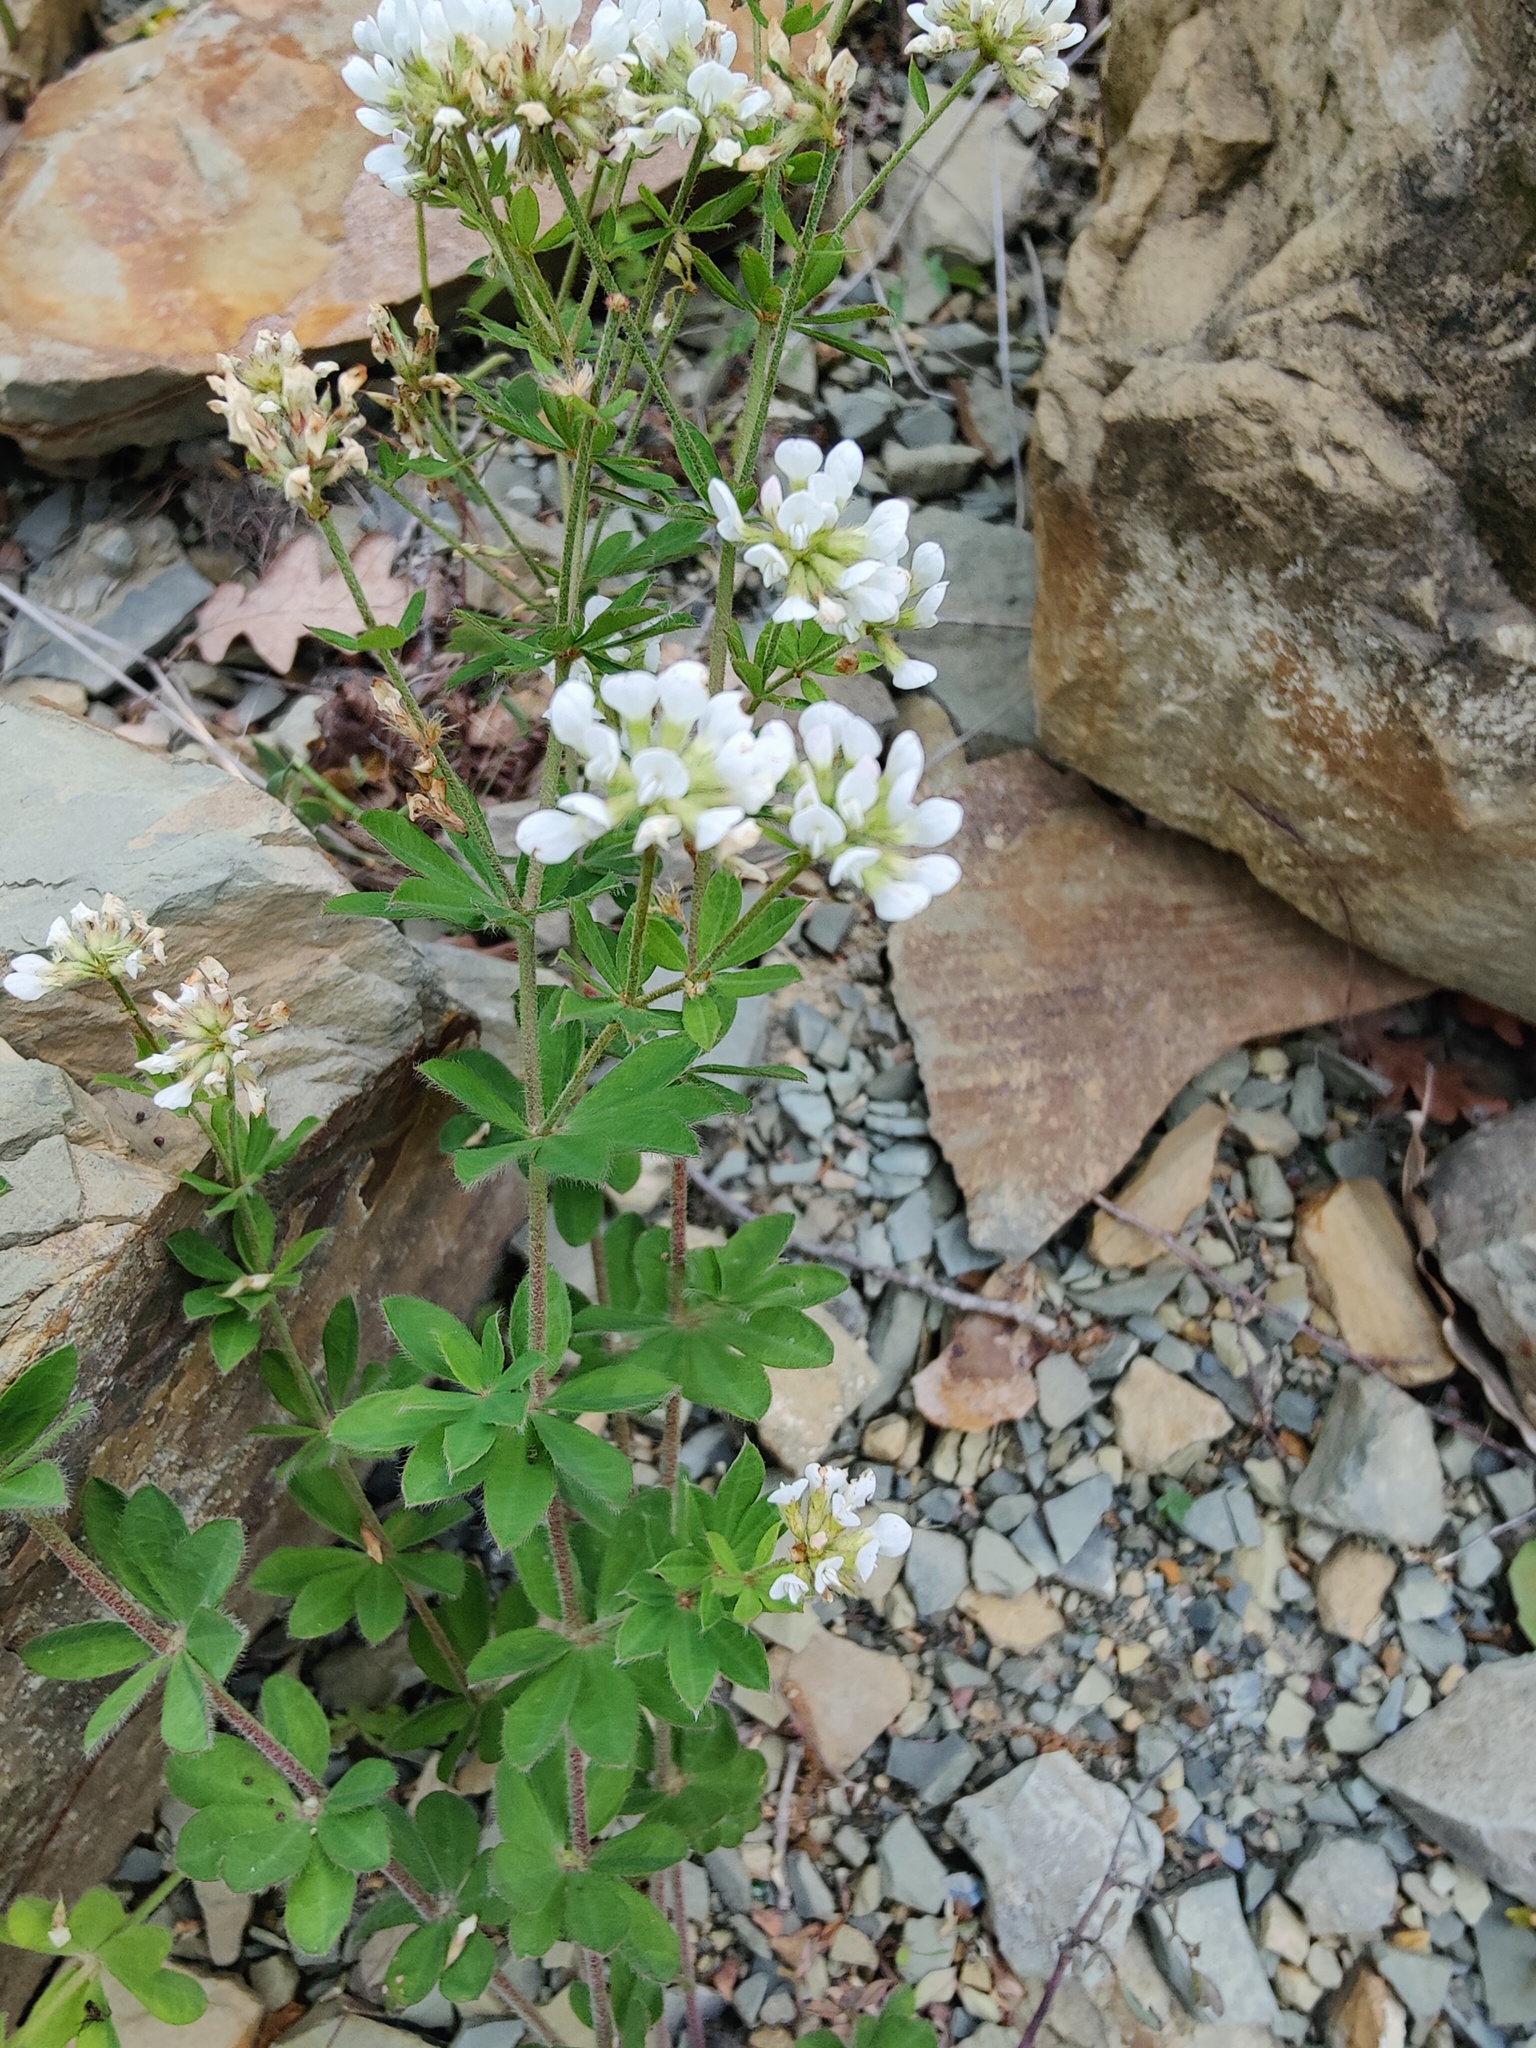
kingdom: Plantae
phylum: Tracheophyta
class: Magnoliopsida
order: Fabales
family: Fabaceae
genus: Lotus
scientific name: Lotus herbaceus
